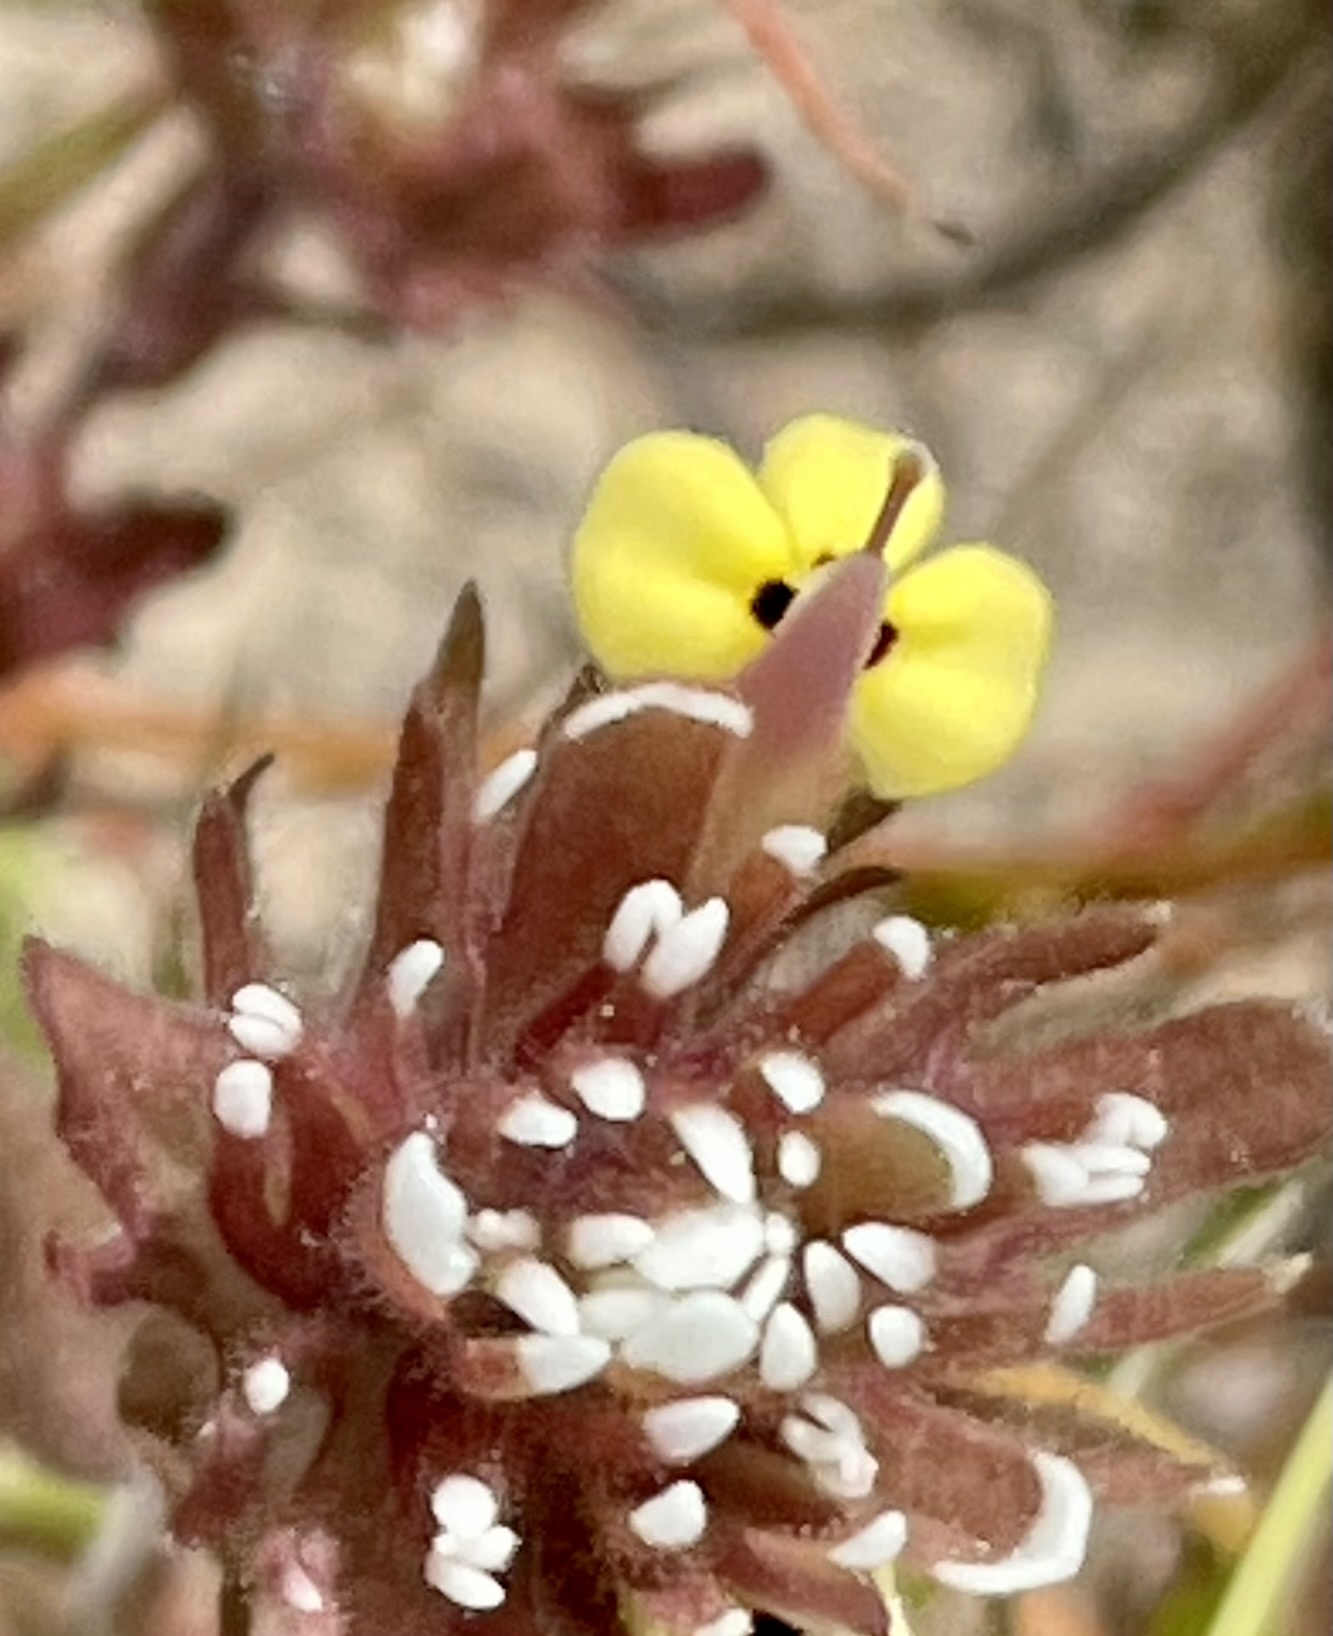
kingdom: Plantae
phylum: Tracheophyta
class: Magnoliopsida
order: Lamiales
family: Orobanchaceae
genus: Castilleja
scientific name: Castilleja ambigua
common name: Johnny-nip
